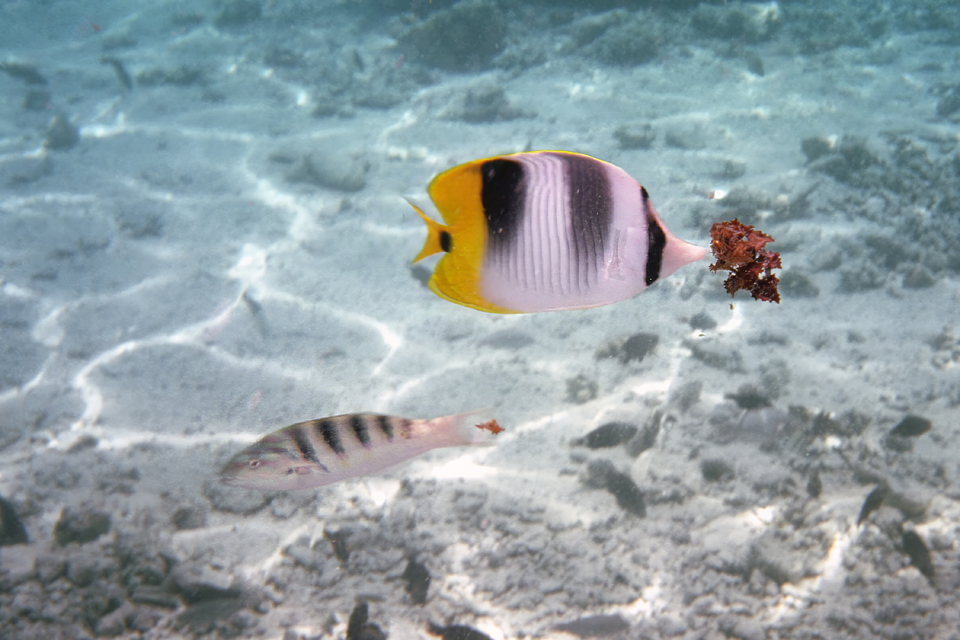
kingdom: Animalia
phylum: Chordata
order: Perciformes
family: Labridae
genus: Thalassoma
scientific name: Thalassoma hardwicke
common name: Sixbar wrasse
